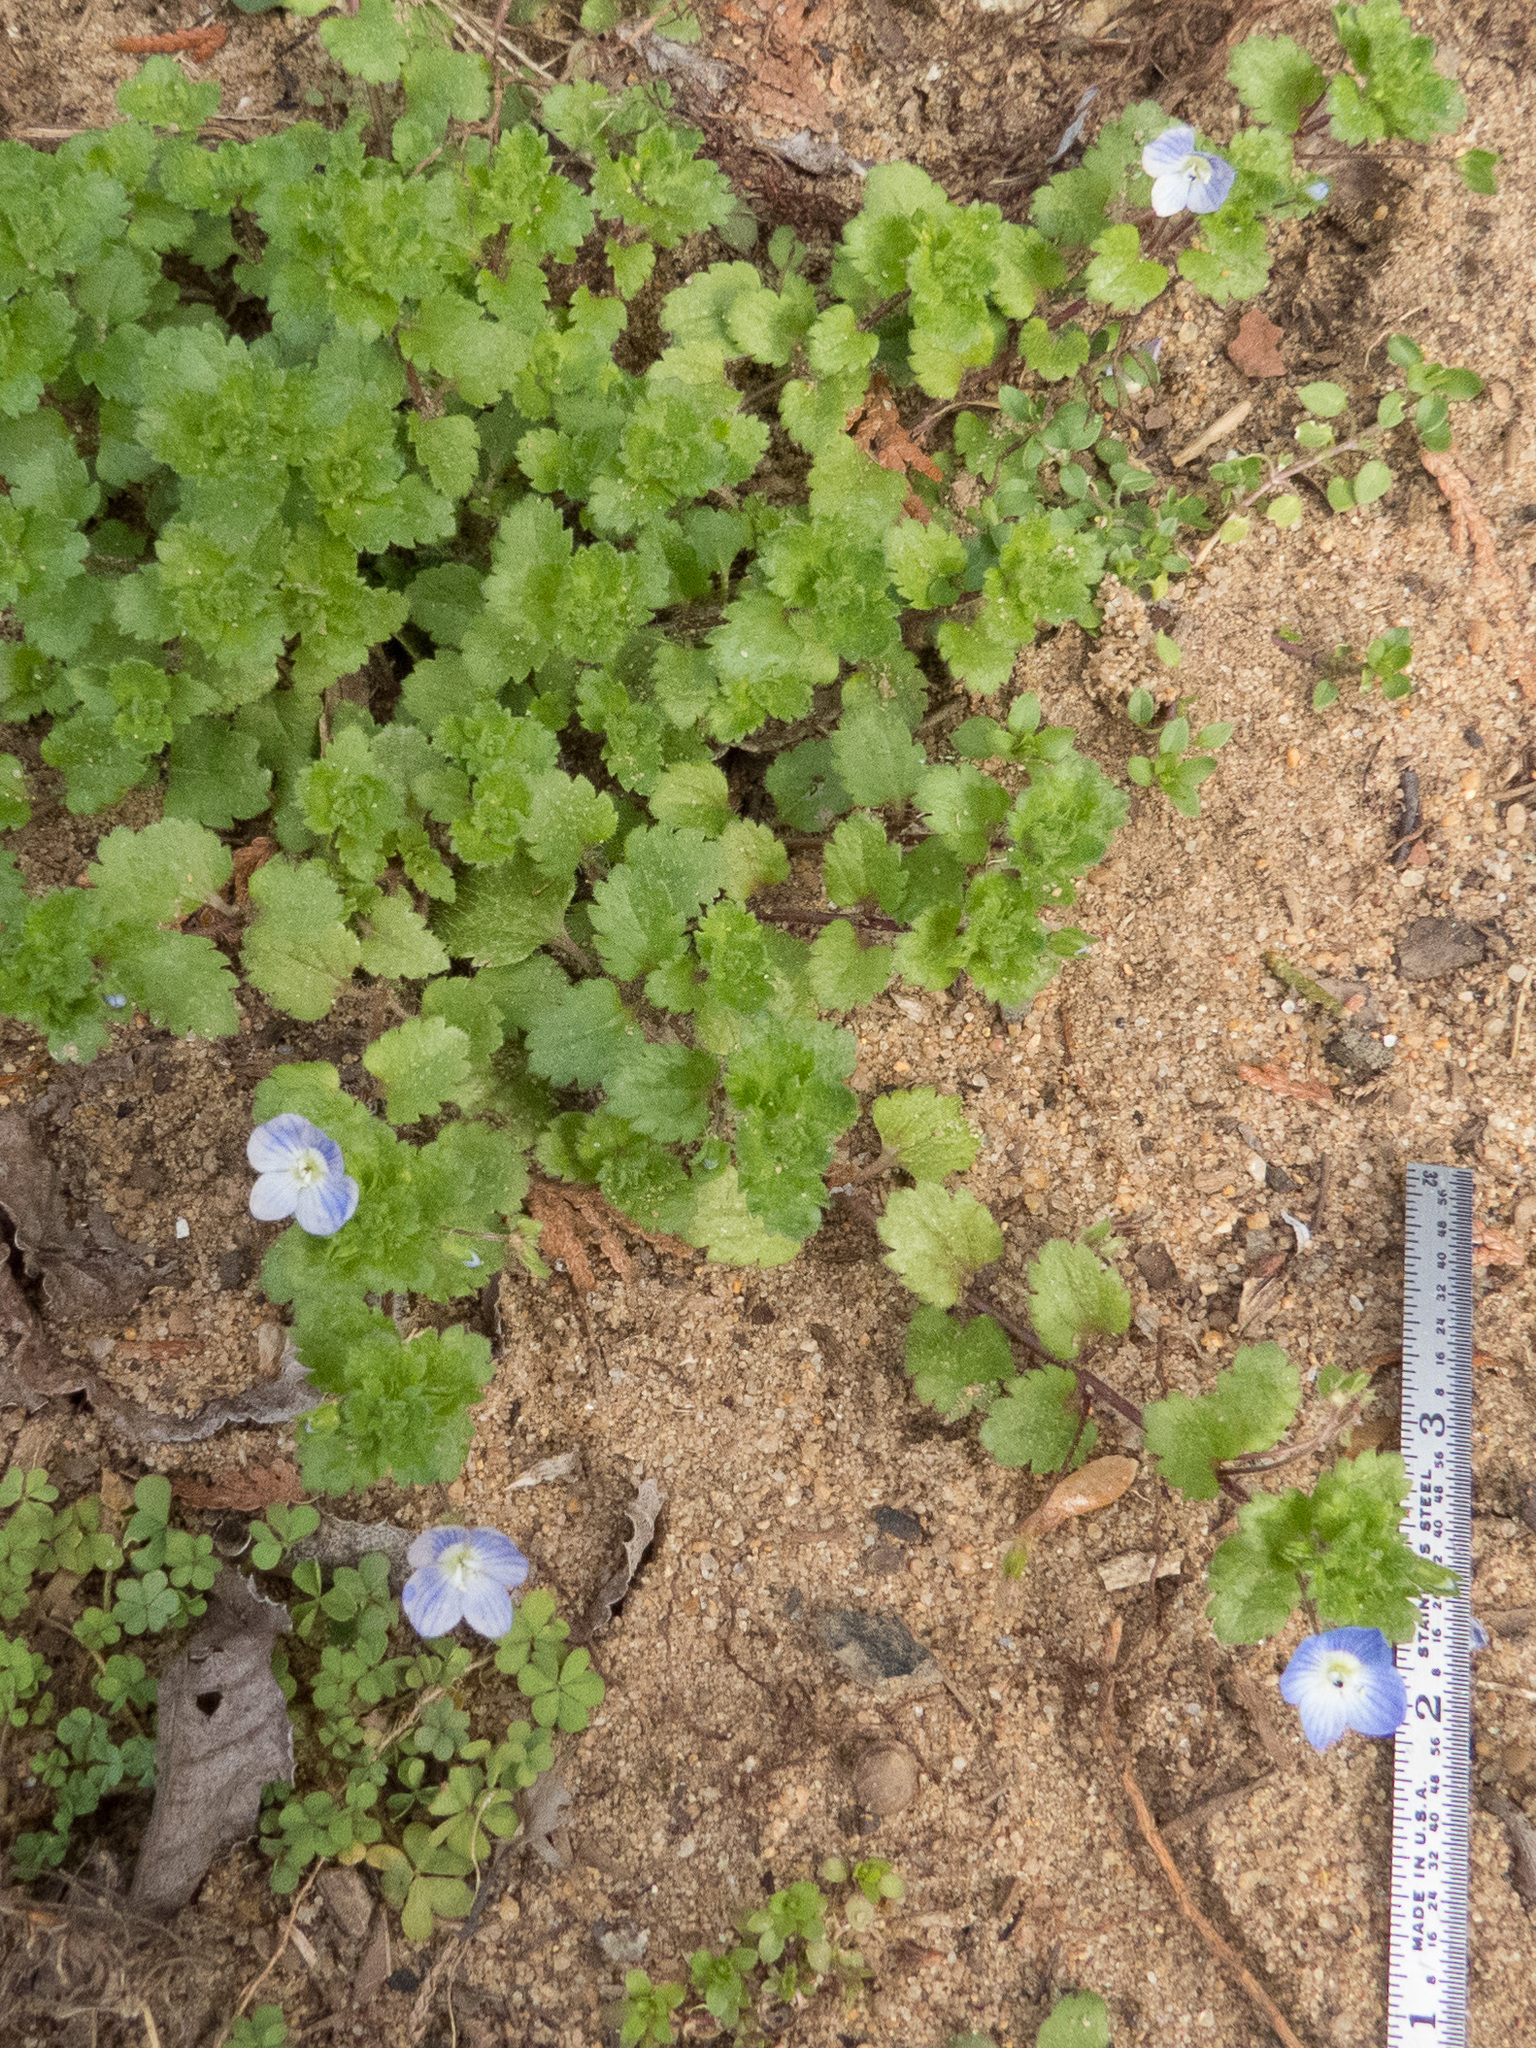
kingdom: Plantae
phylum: Tracheophyta
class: Magnoliopsida
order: Lamiales
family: Plantaginaceae
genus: Veronica
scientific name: Veronica persica
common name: Common field-speedwell
